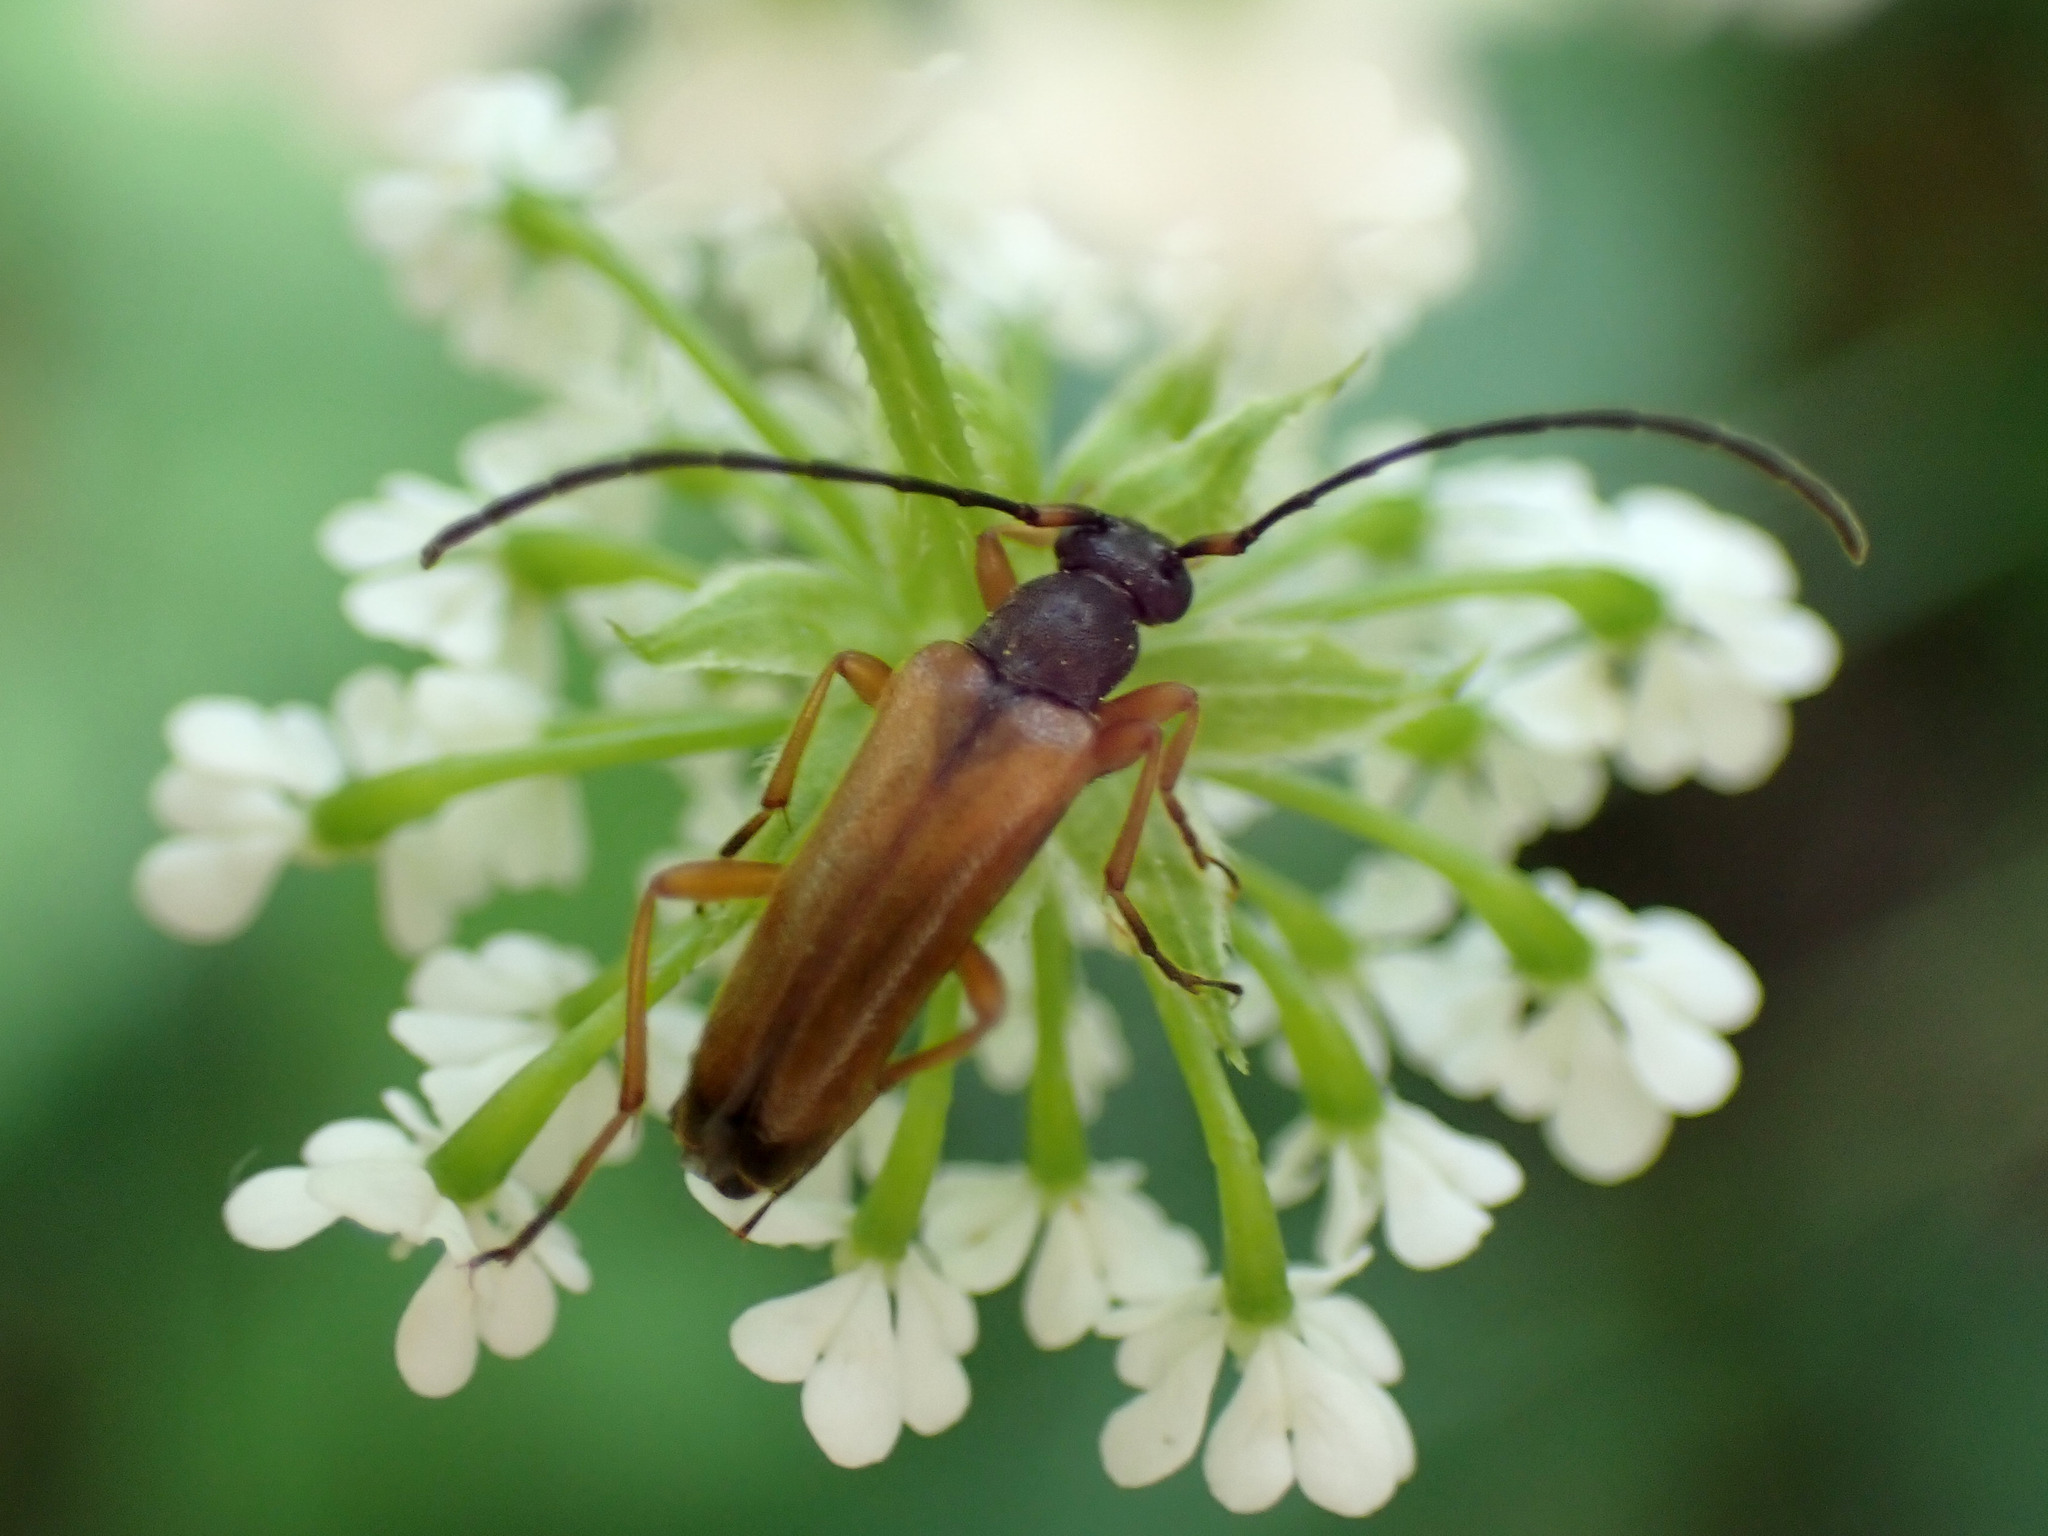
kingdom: Animalia
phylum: Arthropoda
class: Insecta
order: Coleoptera
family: Cerambycidae
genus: Alosterna
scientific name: Alosterna tabacicolor
